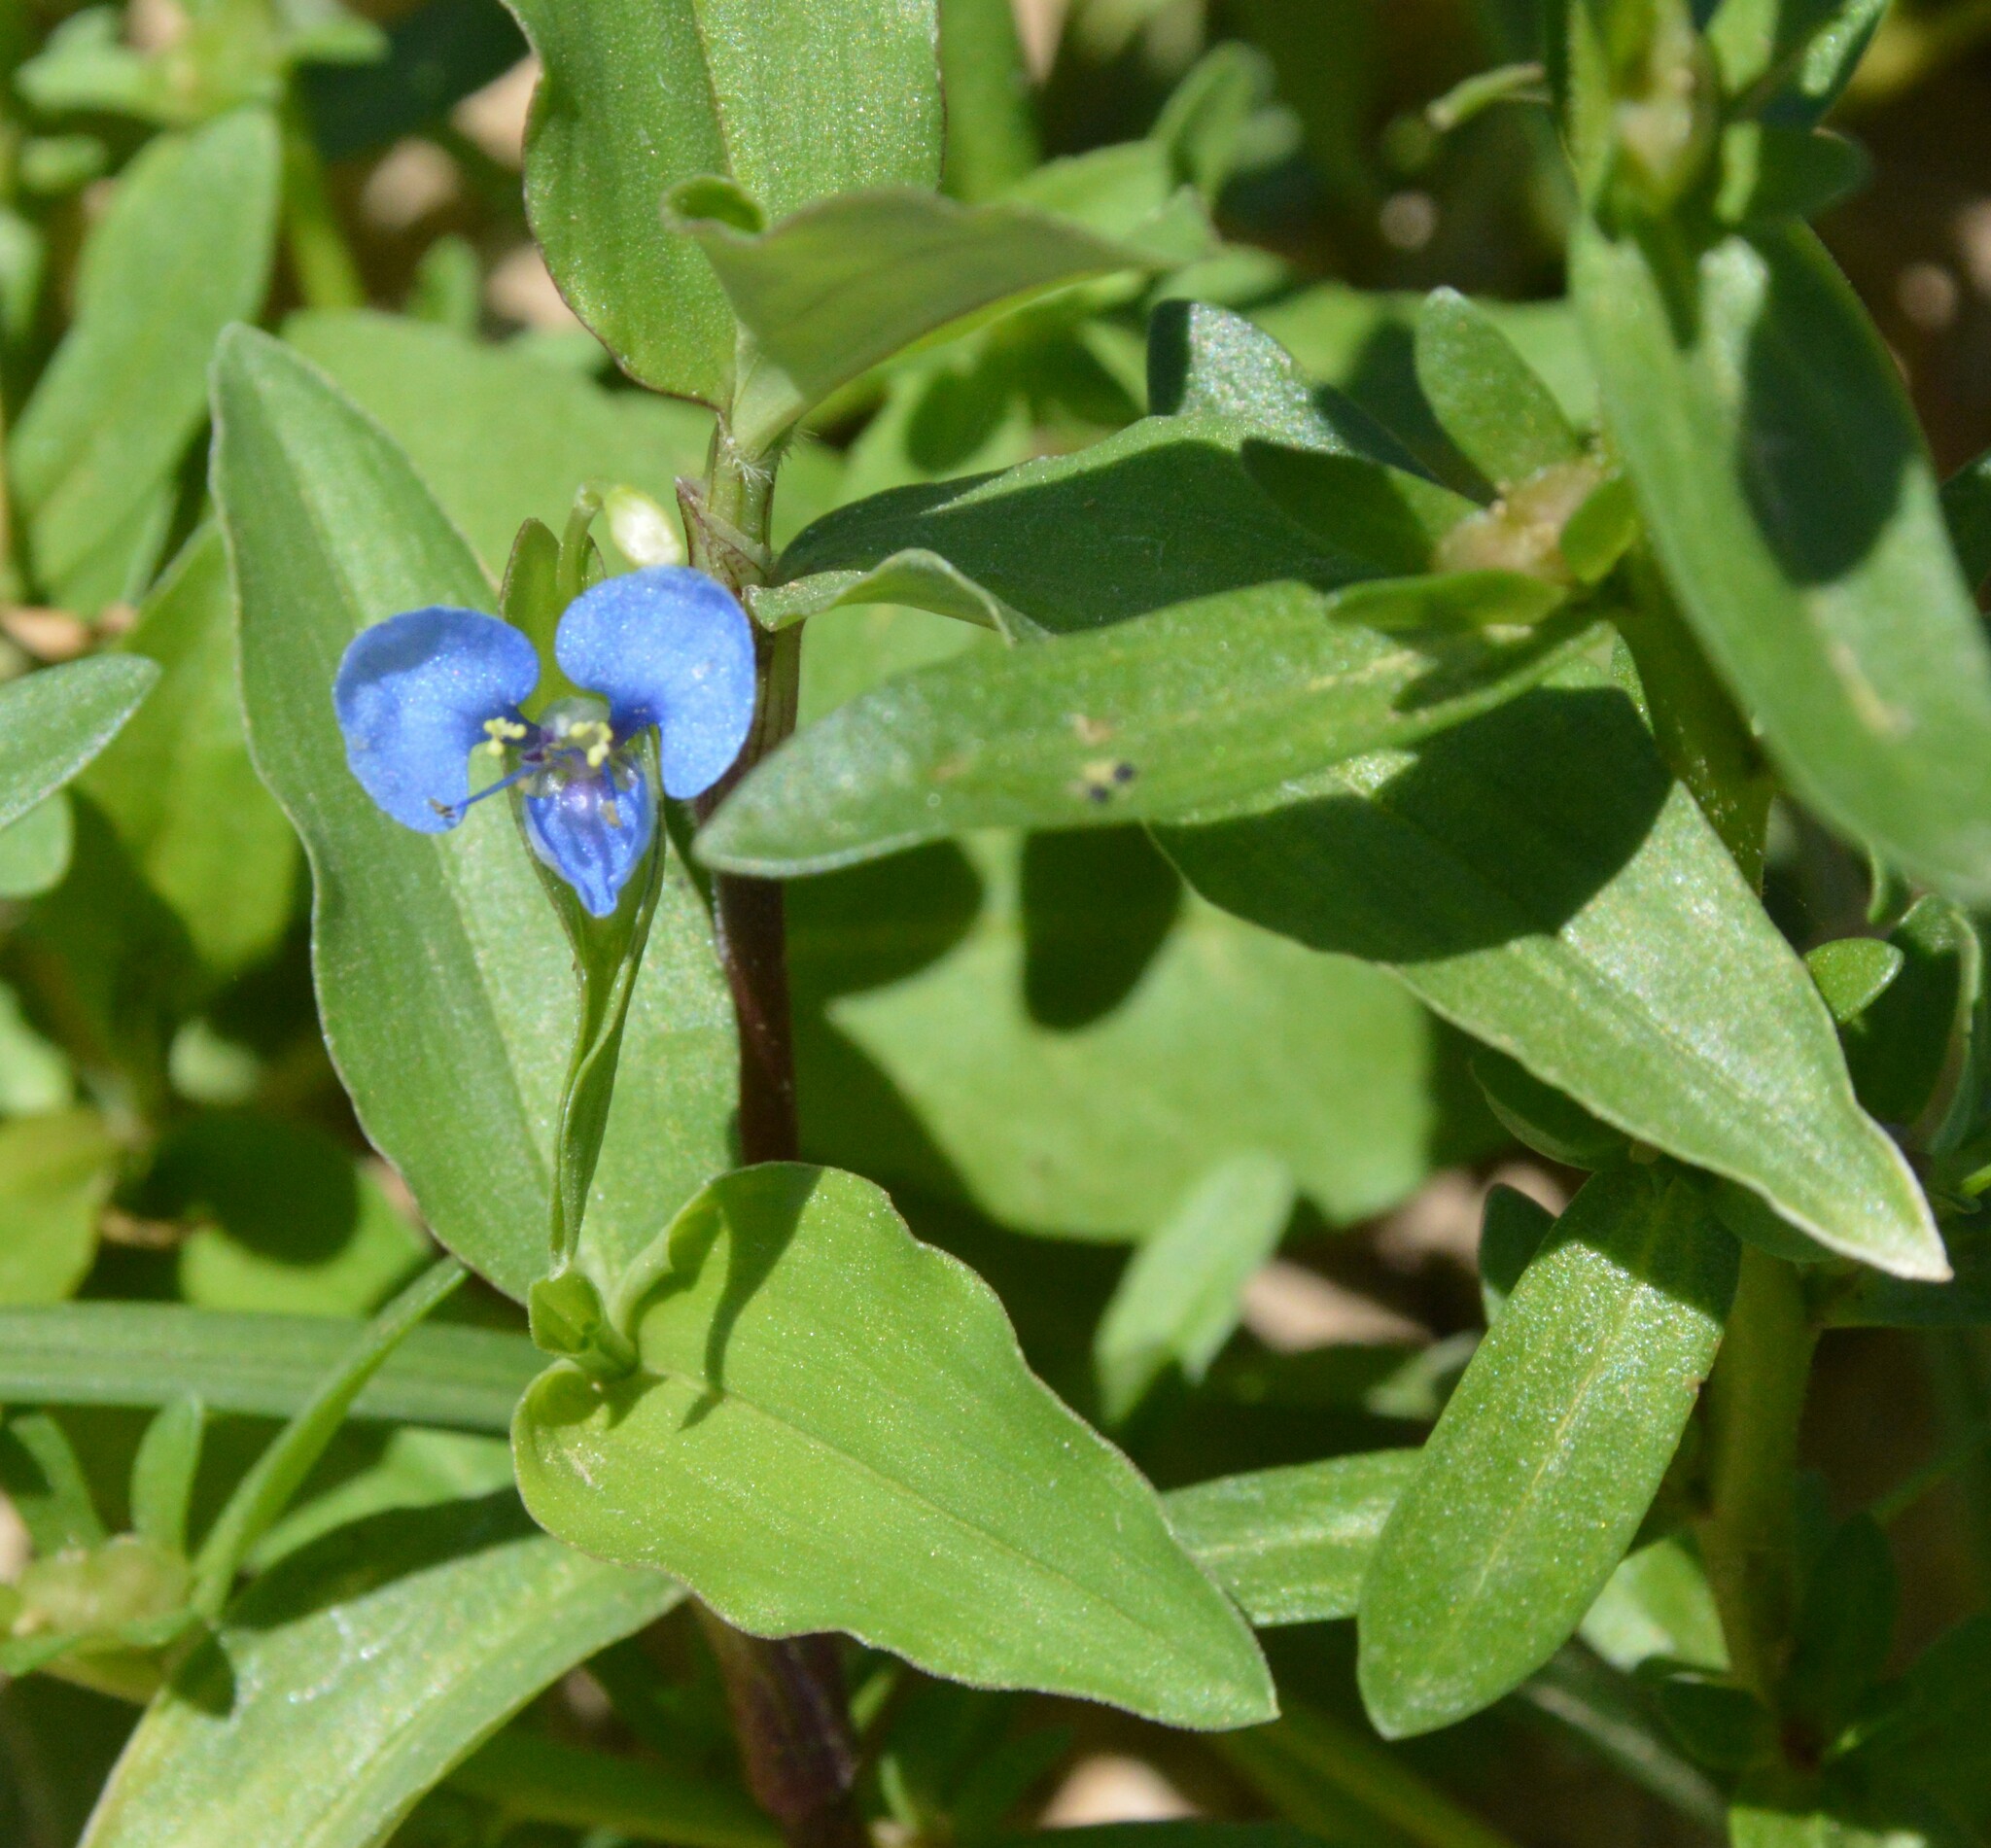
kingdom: Plantae
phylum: Tracheophyta
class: Liliopsida
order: Commelinales
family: Commelinaceae
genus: Commelina
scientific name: Commelina diffusa
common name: Climbing dayflower
